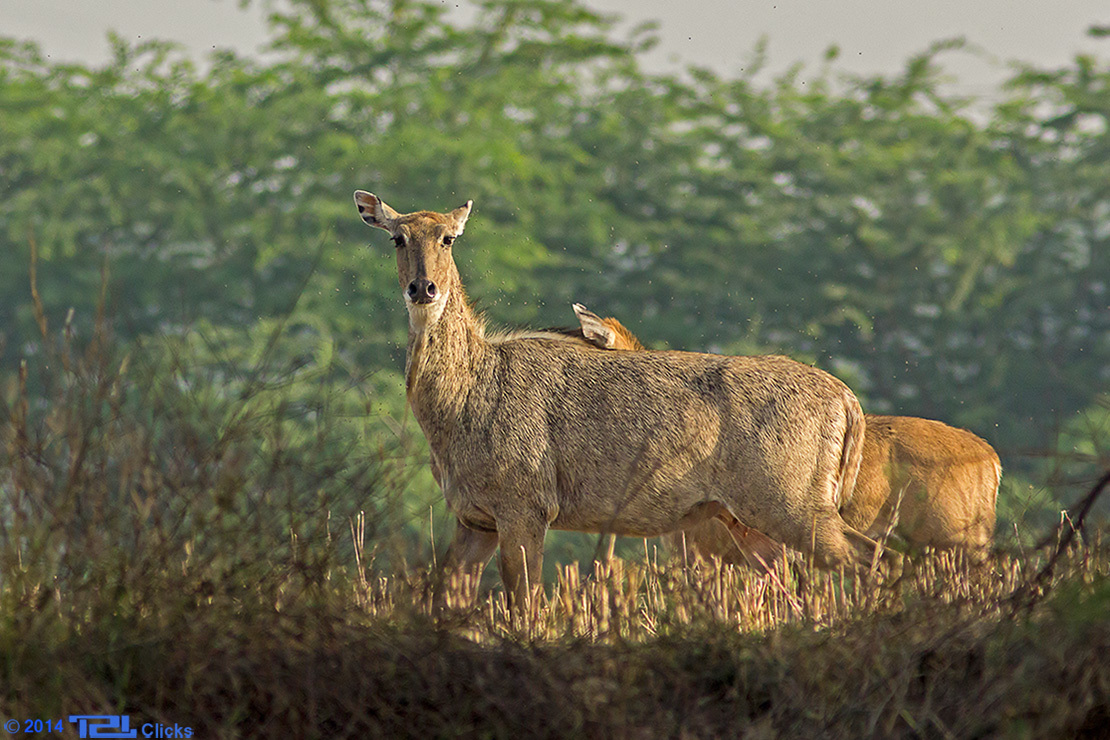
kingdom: Animalia
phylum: Chordata
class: Mammalia
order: Artiodactyla
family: Bovidae
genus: Boselaphus
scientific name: Boselaphus tragocamelus
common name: Nilgai
